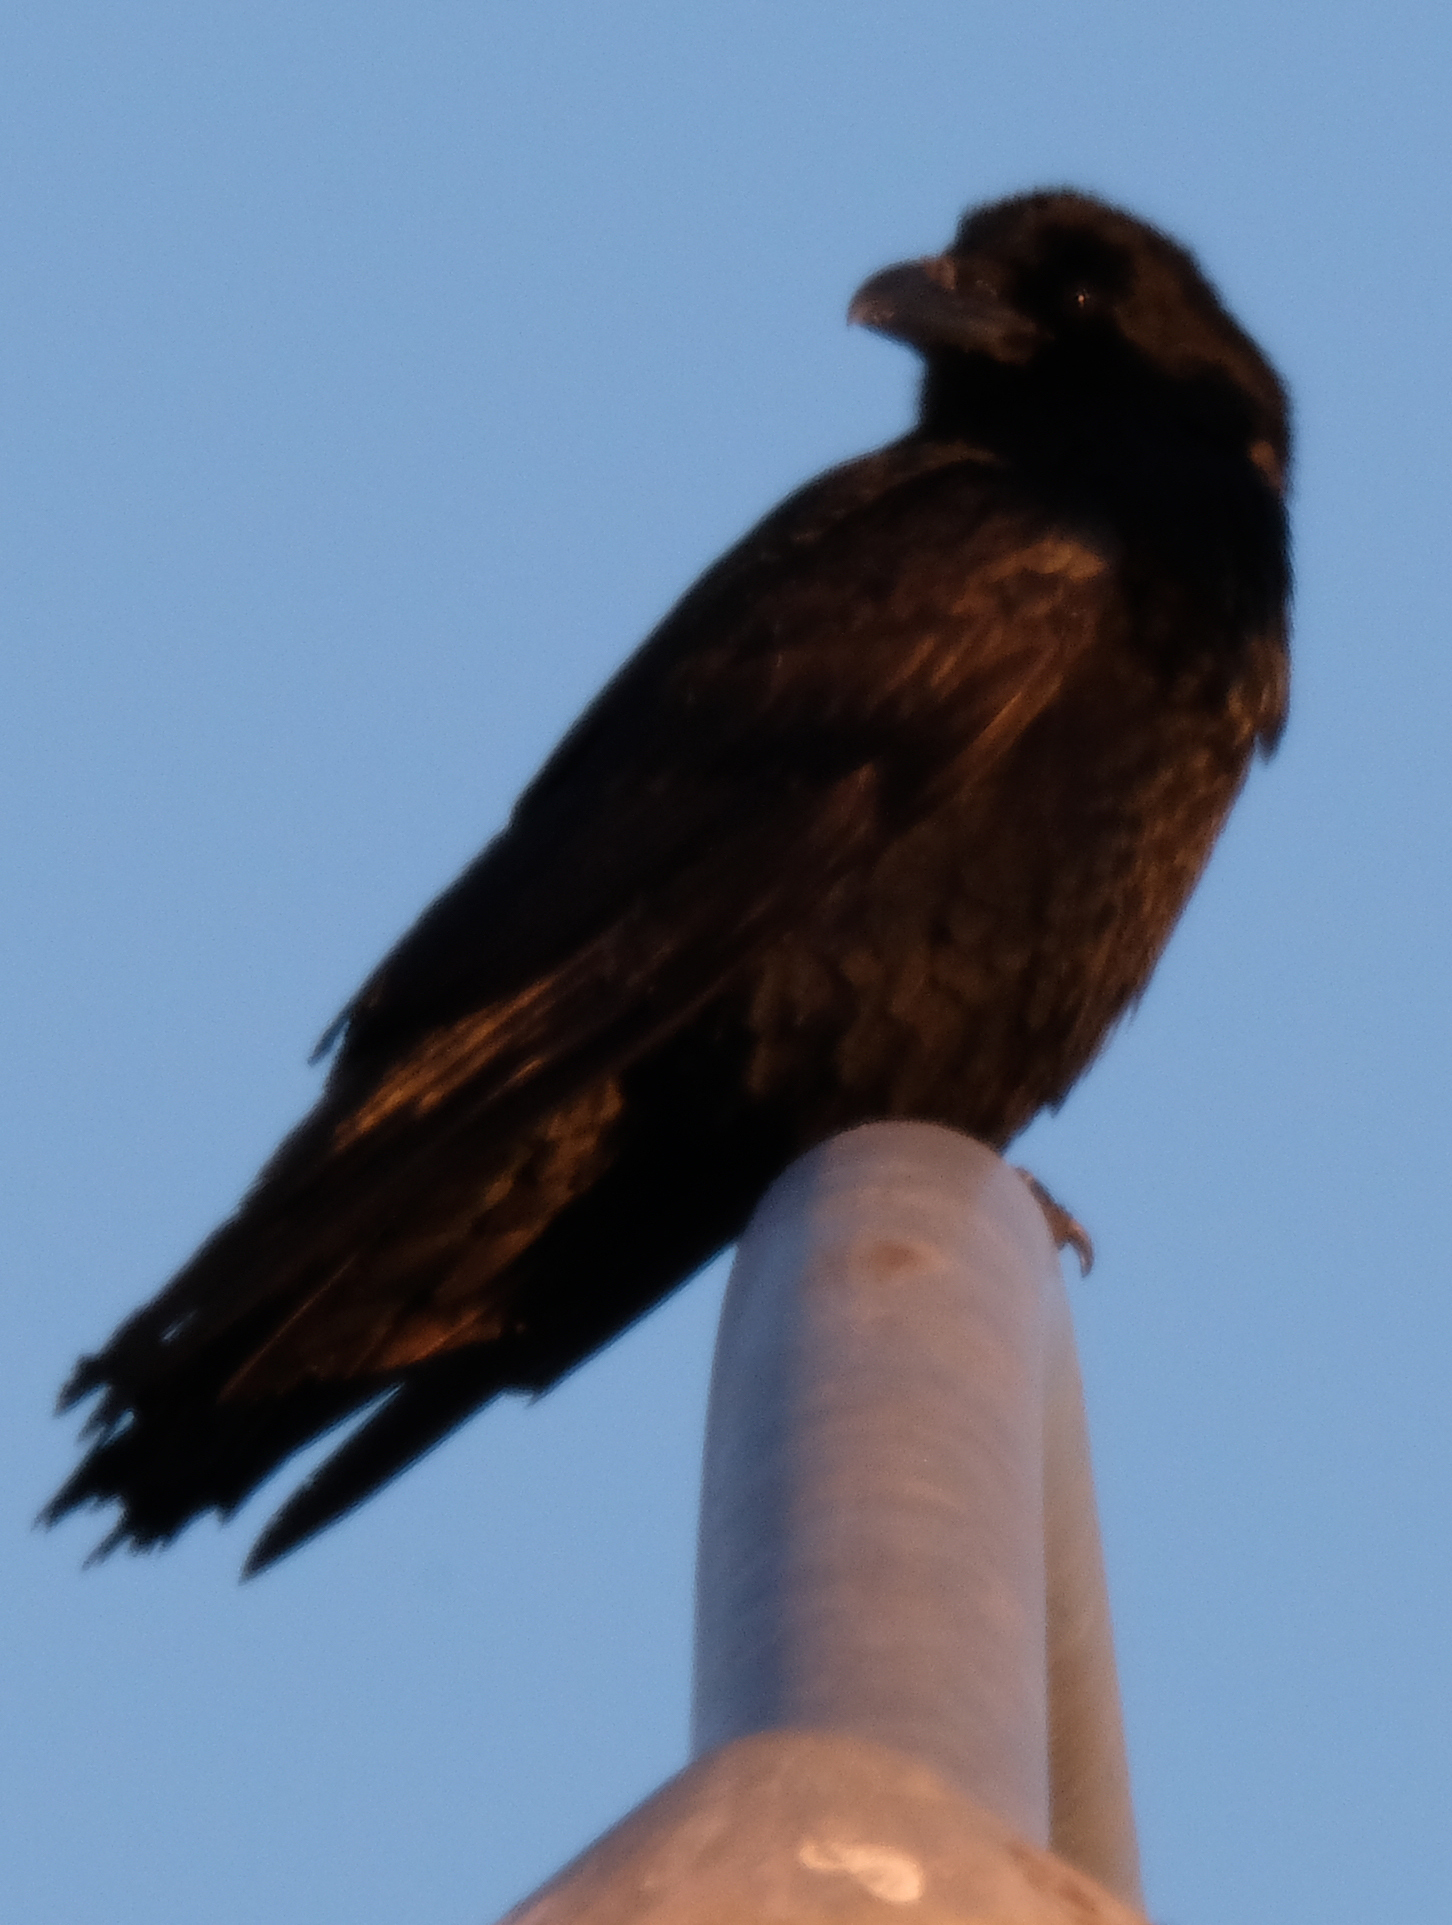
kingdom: Animalia
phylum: Chordata
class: Aves
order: Passeriformes
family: Corvidae
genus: Corvus
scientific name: Corvus corax
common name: Common raven
